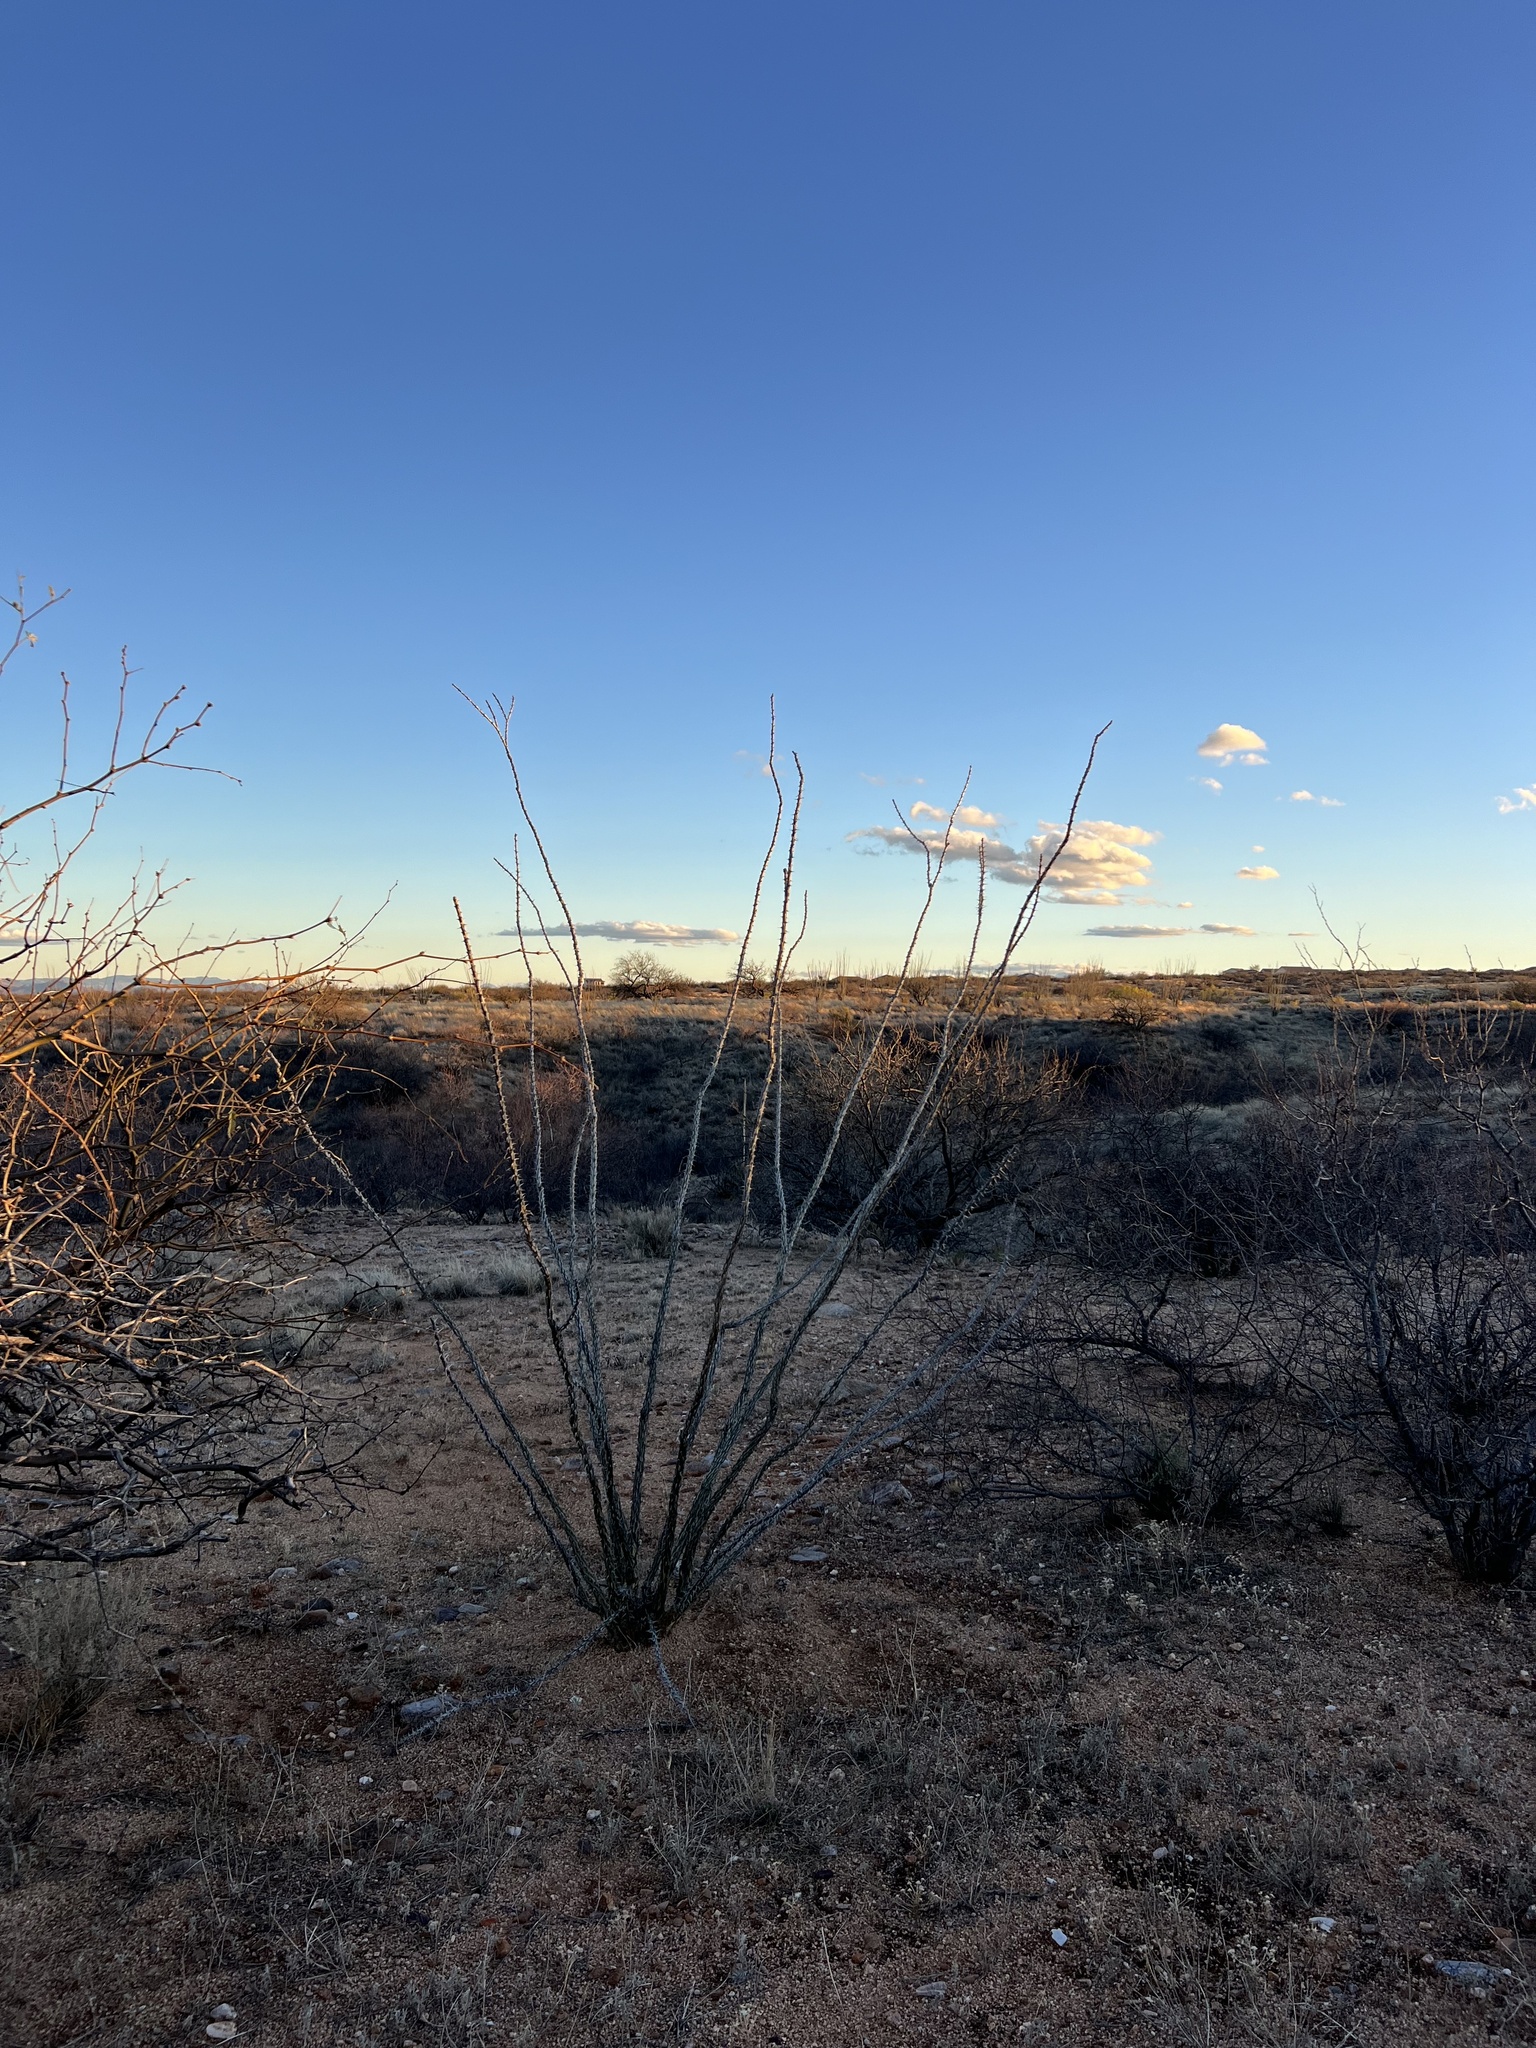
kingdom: Plantae
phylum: Tracheophyta
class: Magnoliopsida
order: Ericales
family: Fouquieriaceae
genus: Fouquieria
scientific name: Fouquieria splendens
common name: Vine-cactus
